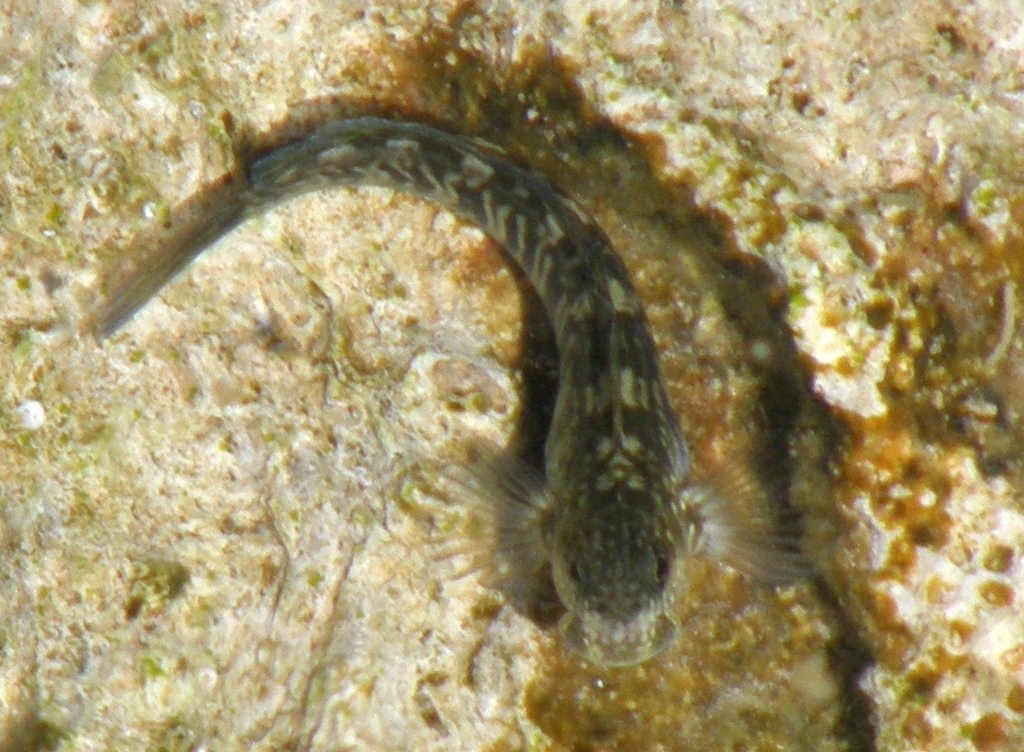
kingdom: Animalia
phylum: Chordata
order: Perciformes
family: Blenniidae
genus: Istiblennius
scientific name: Istiblennius zebra
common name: Zebra blenny
